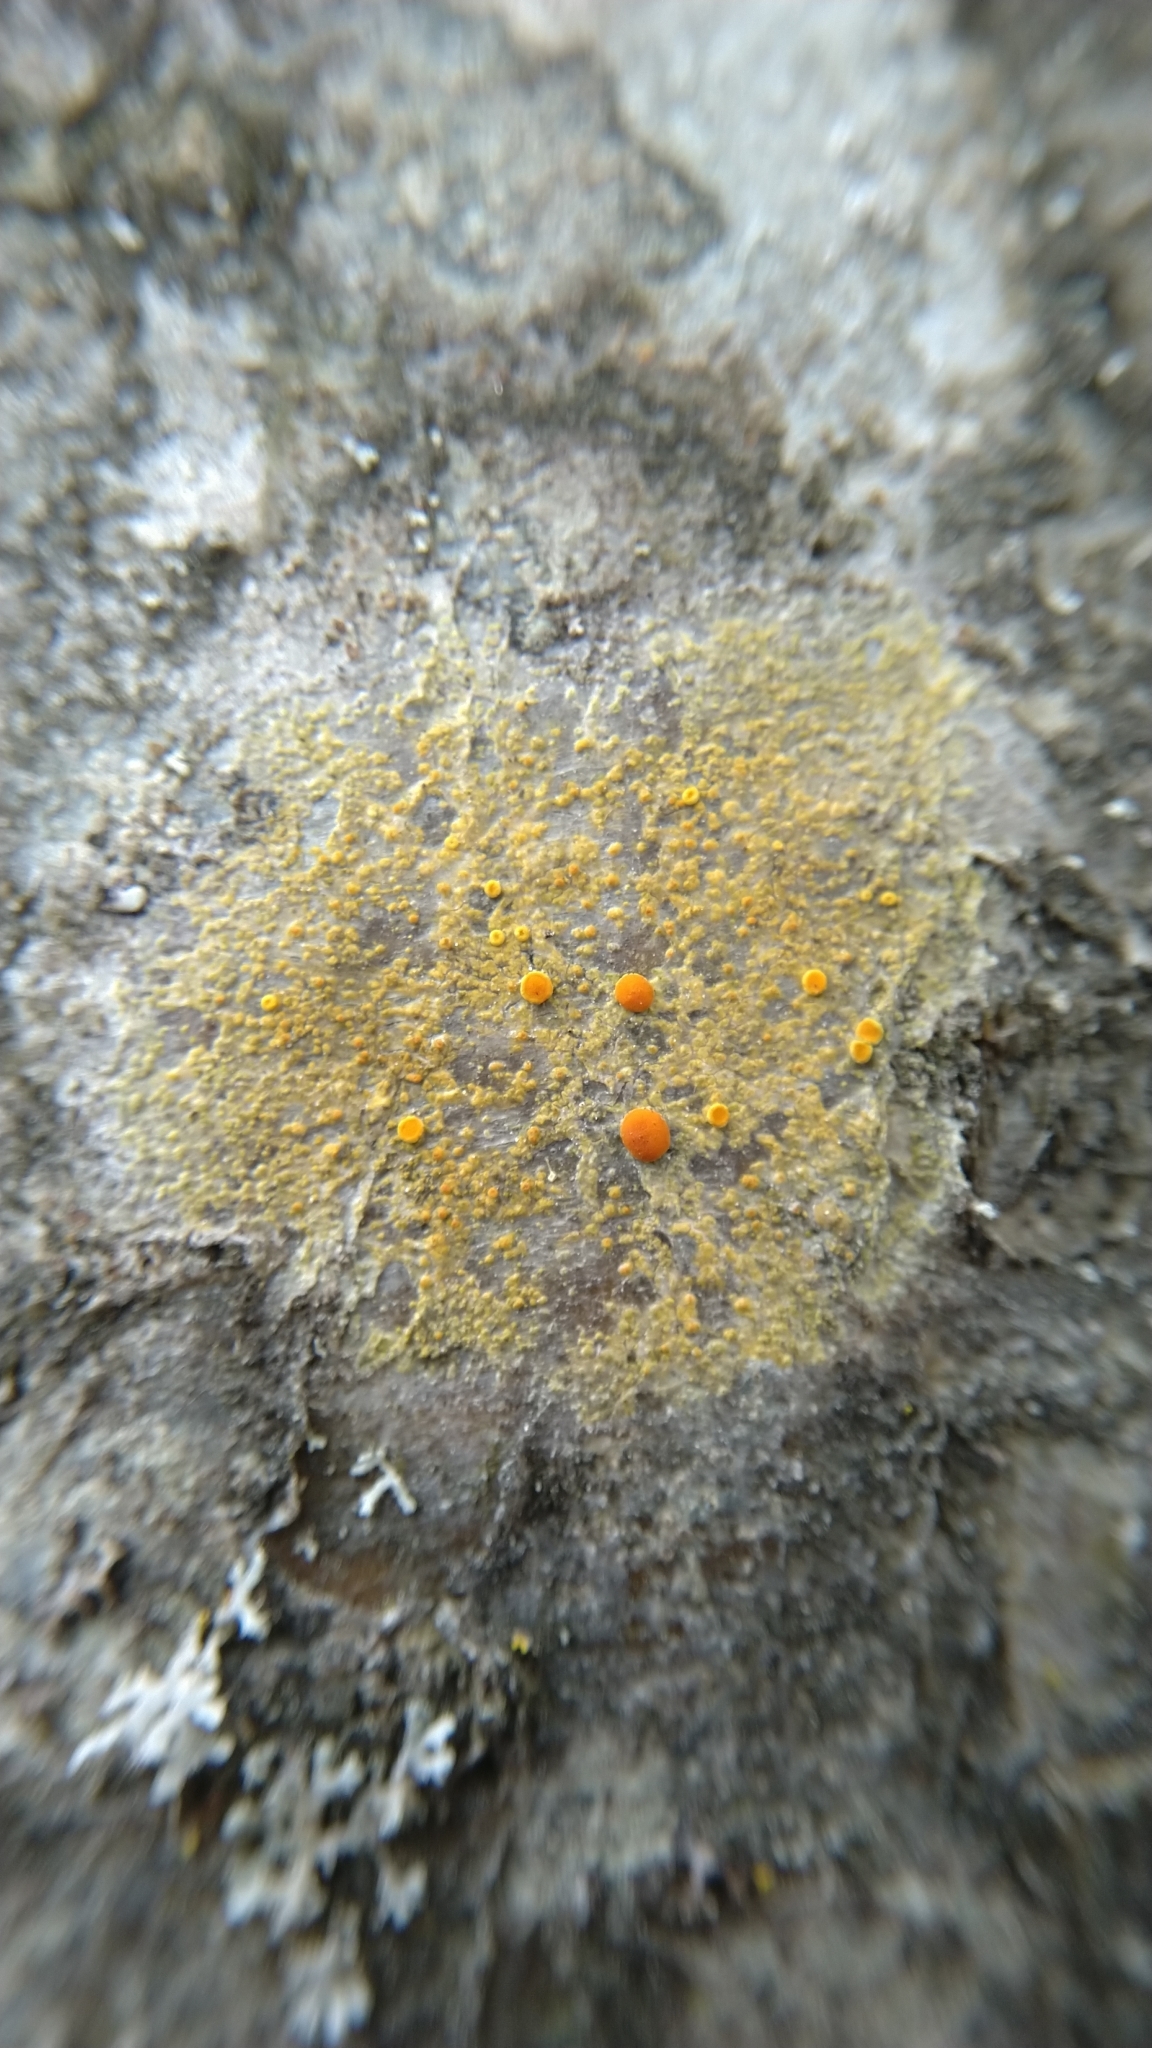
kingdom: Fungi
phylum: Ascomycota
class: Lecanoromycetes
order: Teloschistales
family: Teloschistaceae
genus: Opeltia
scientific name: Opeltia flavorubescens
